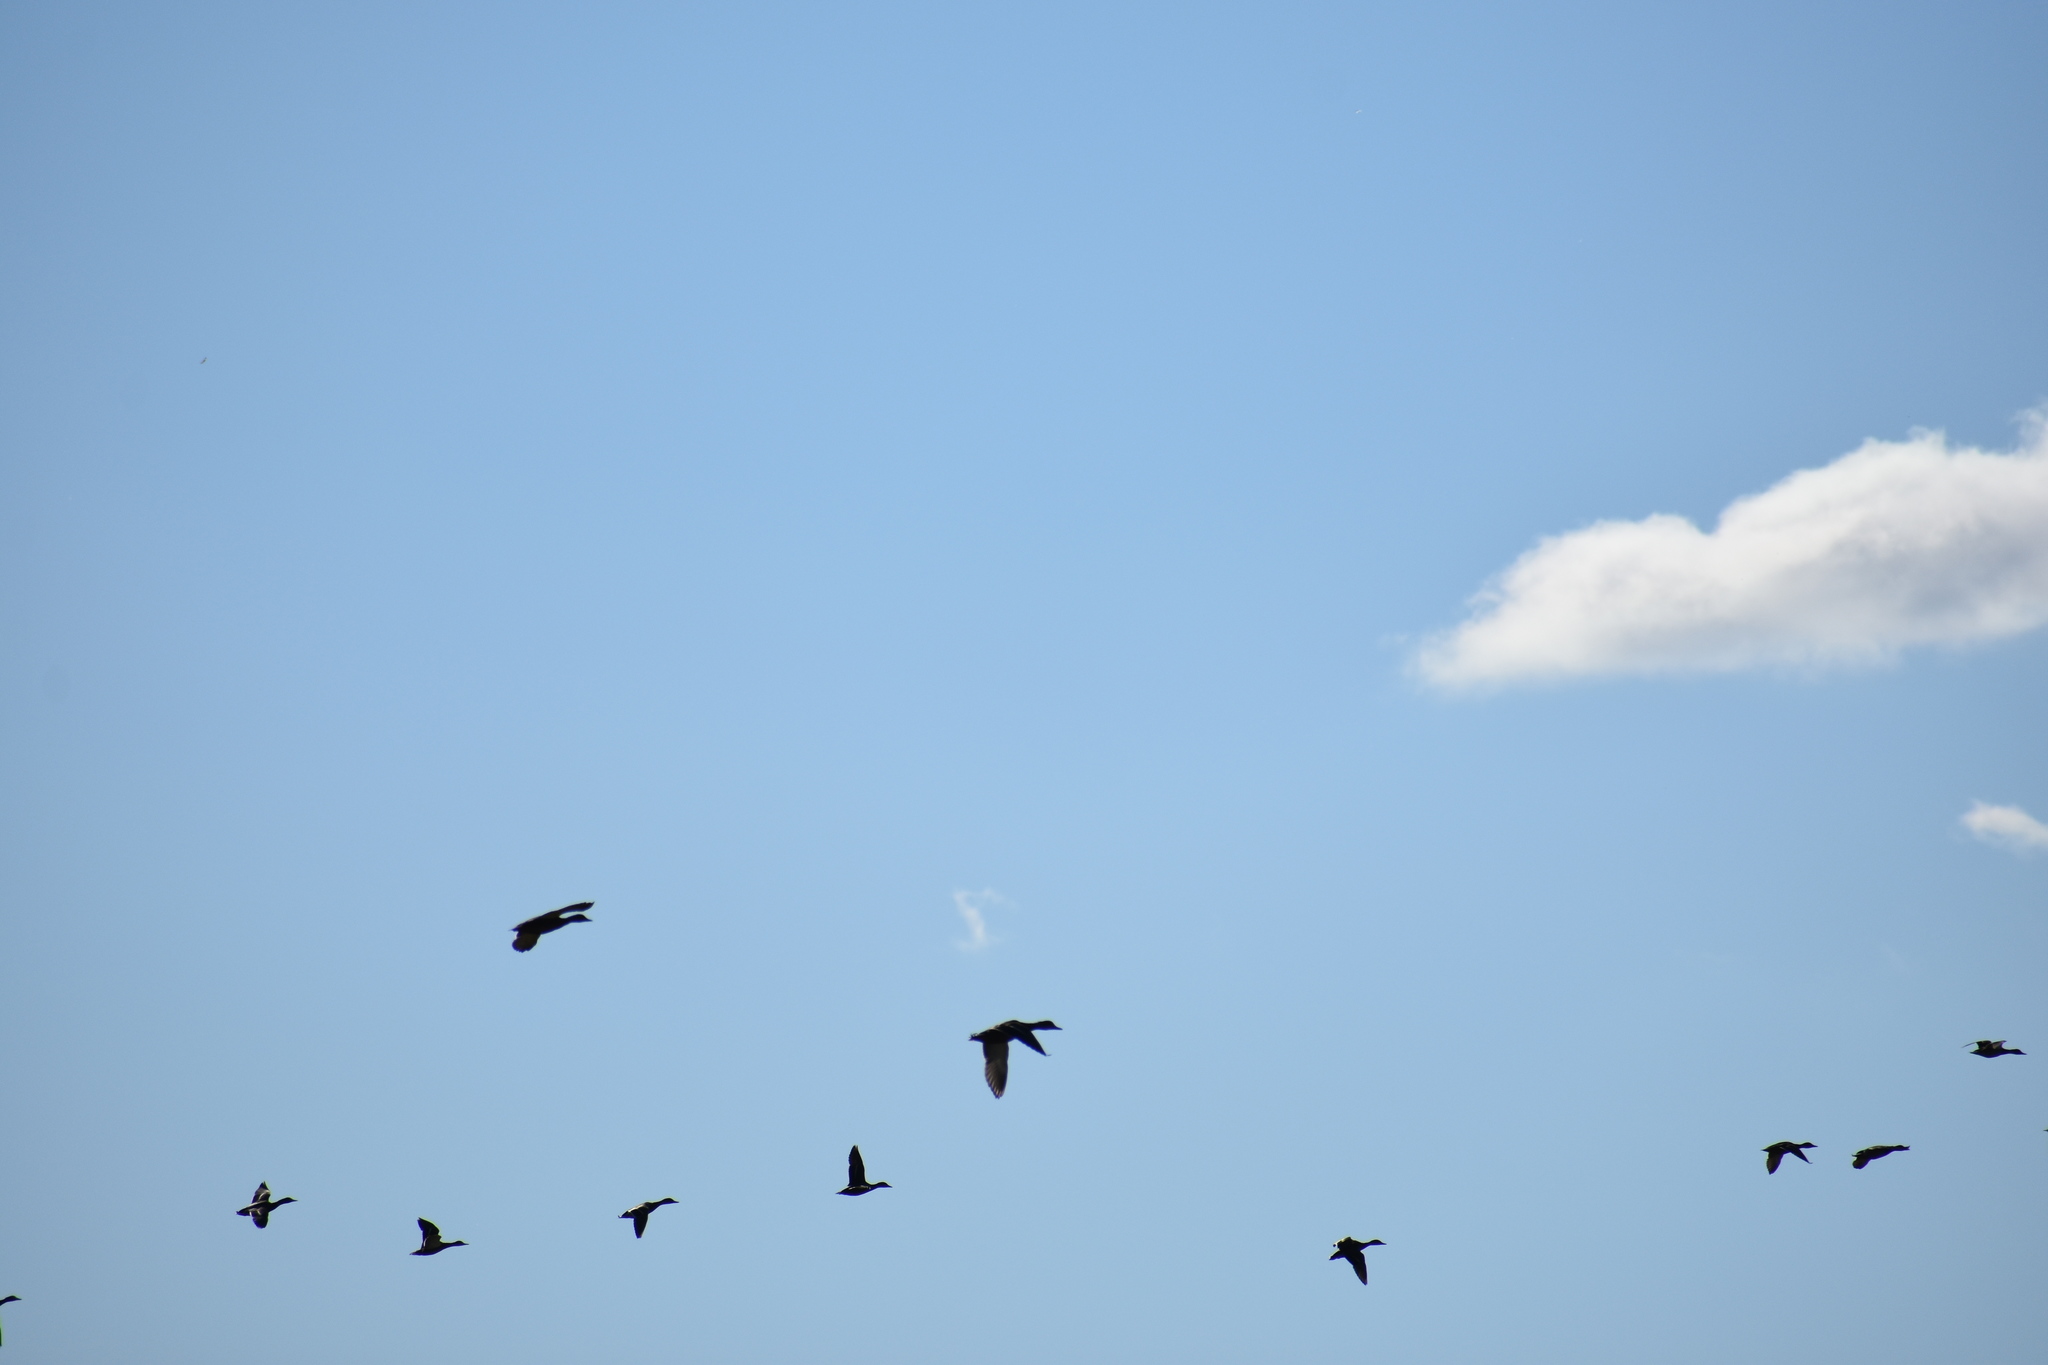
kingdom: Animalia
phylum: Chordata
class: Aves
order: Anseriformes
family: Anatidae
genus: Anas
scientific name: Anas platyrhynchos
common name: Mallard
